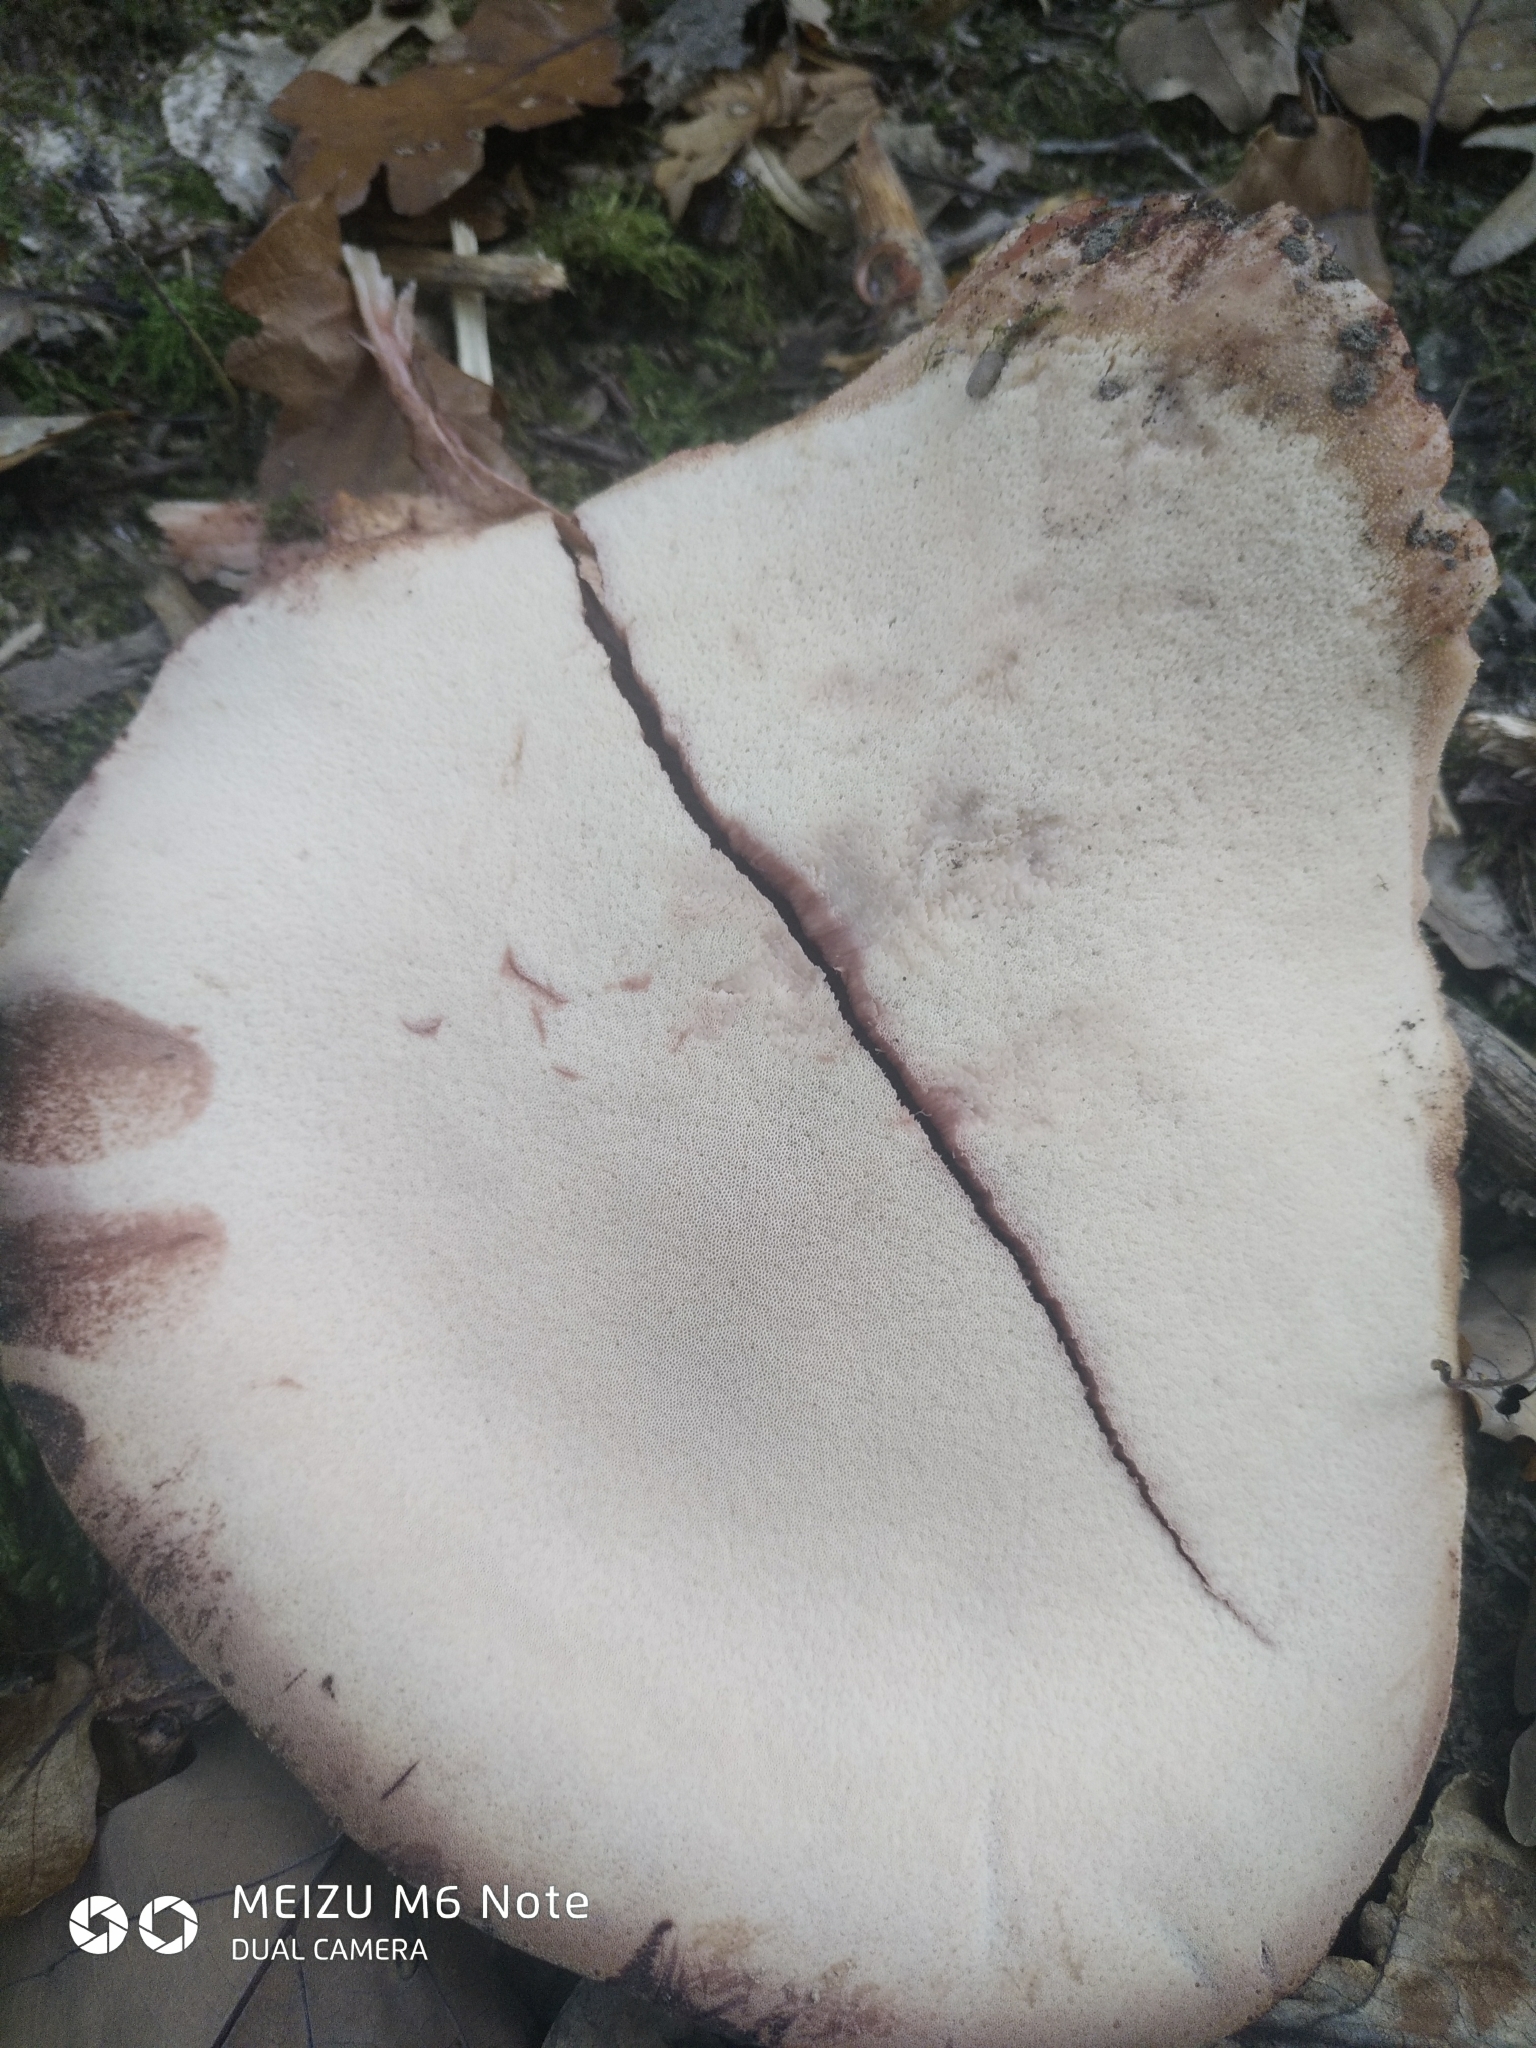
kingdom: Fungi
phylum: Basidiomycota
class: Agaricomycetes
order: Agaricales
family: Fistulinaceae
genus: Fistulina
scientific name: Fistulina hepatica
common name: Beef-steak fungus
